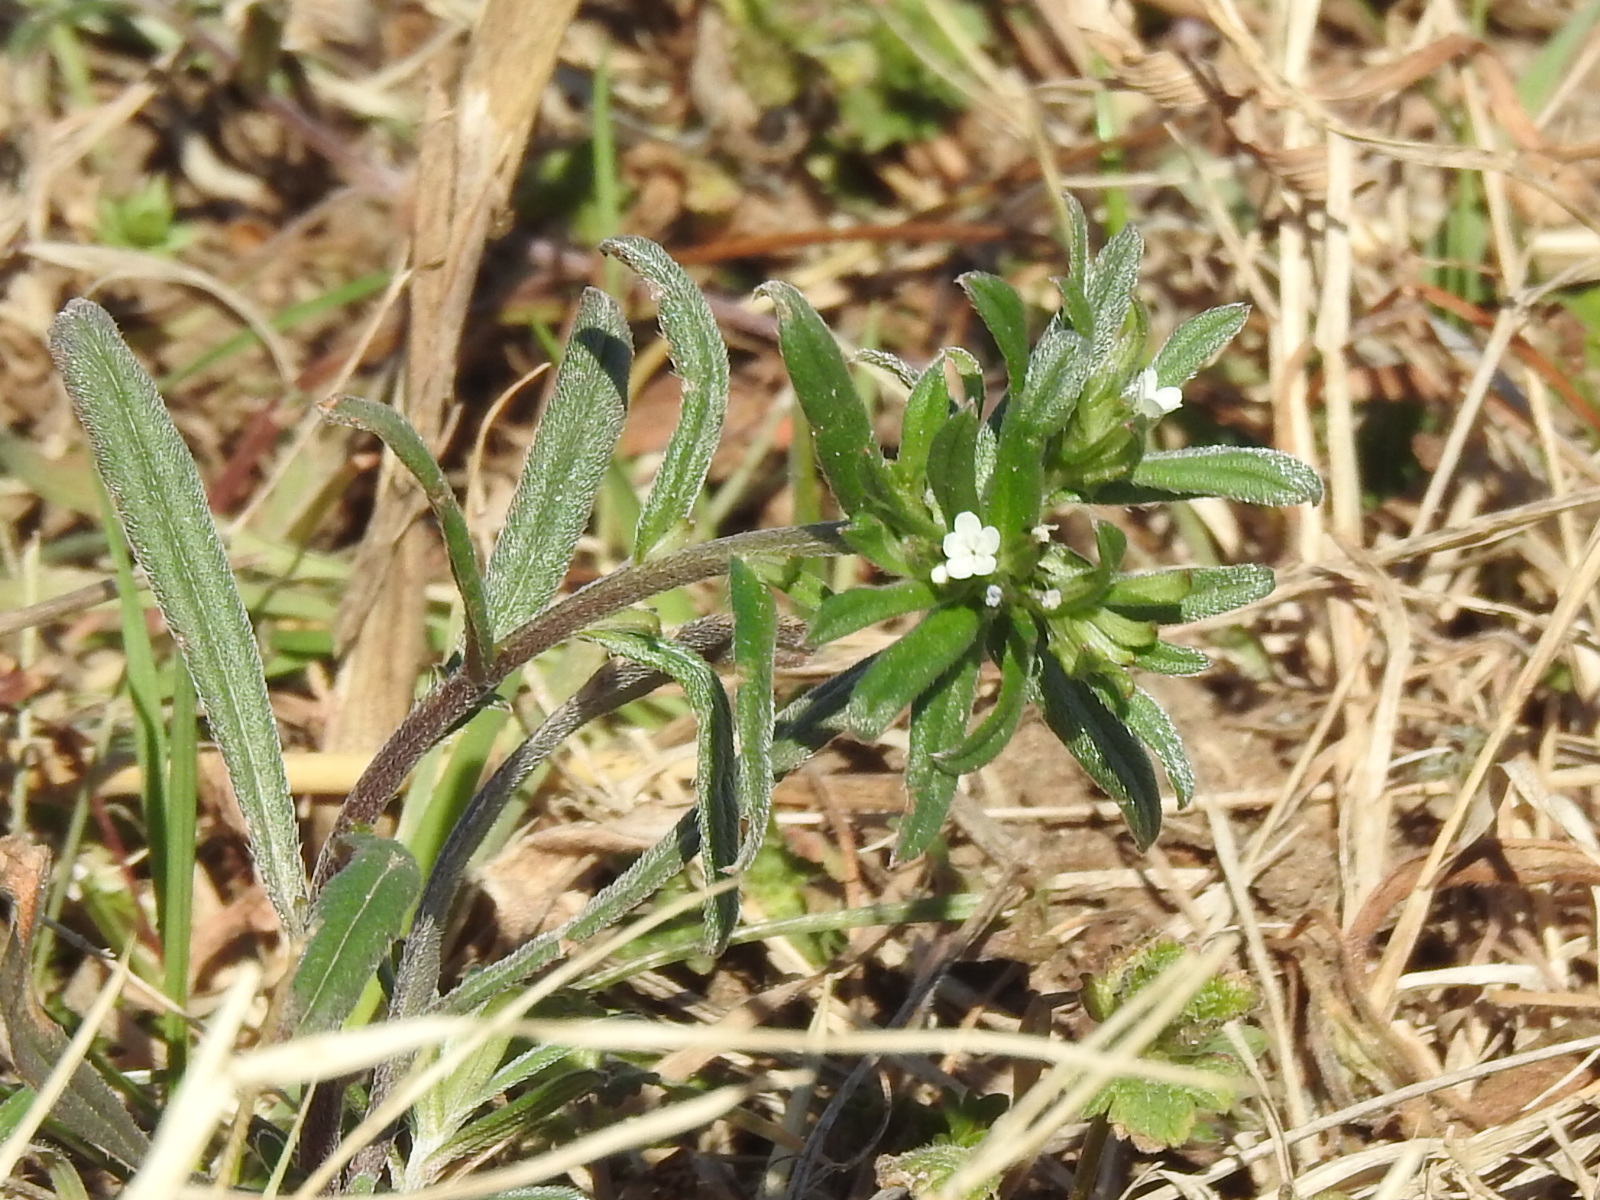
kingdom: Plantae
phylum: Tracheophyta
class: Magnoliopsida
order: Boraginales
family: Boraginaceae
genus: Buglossoides
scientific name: Buglossoides arvensis
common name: Corn gromwell
